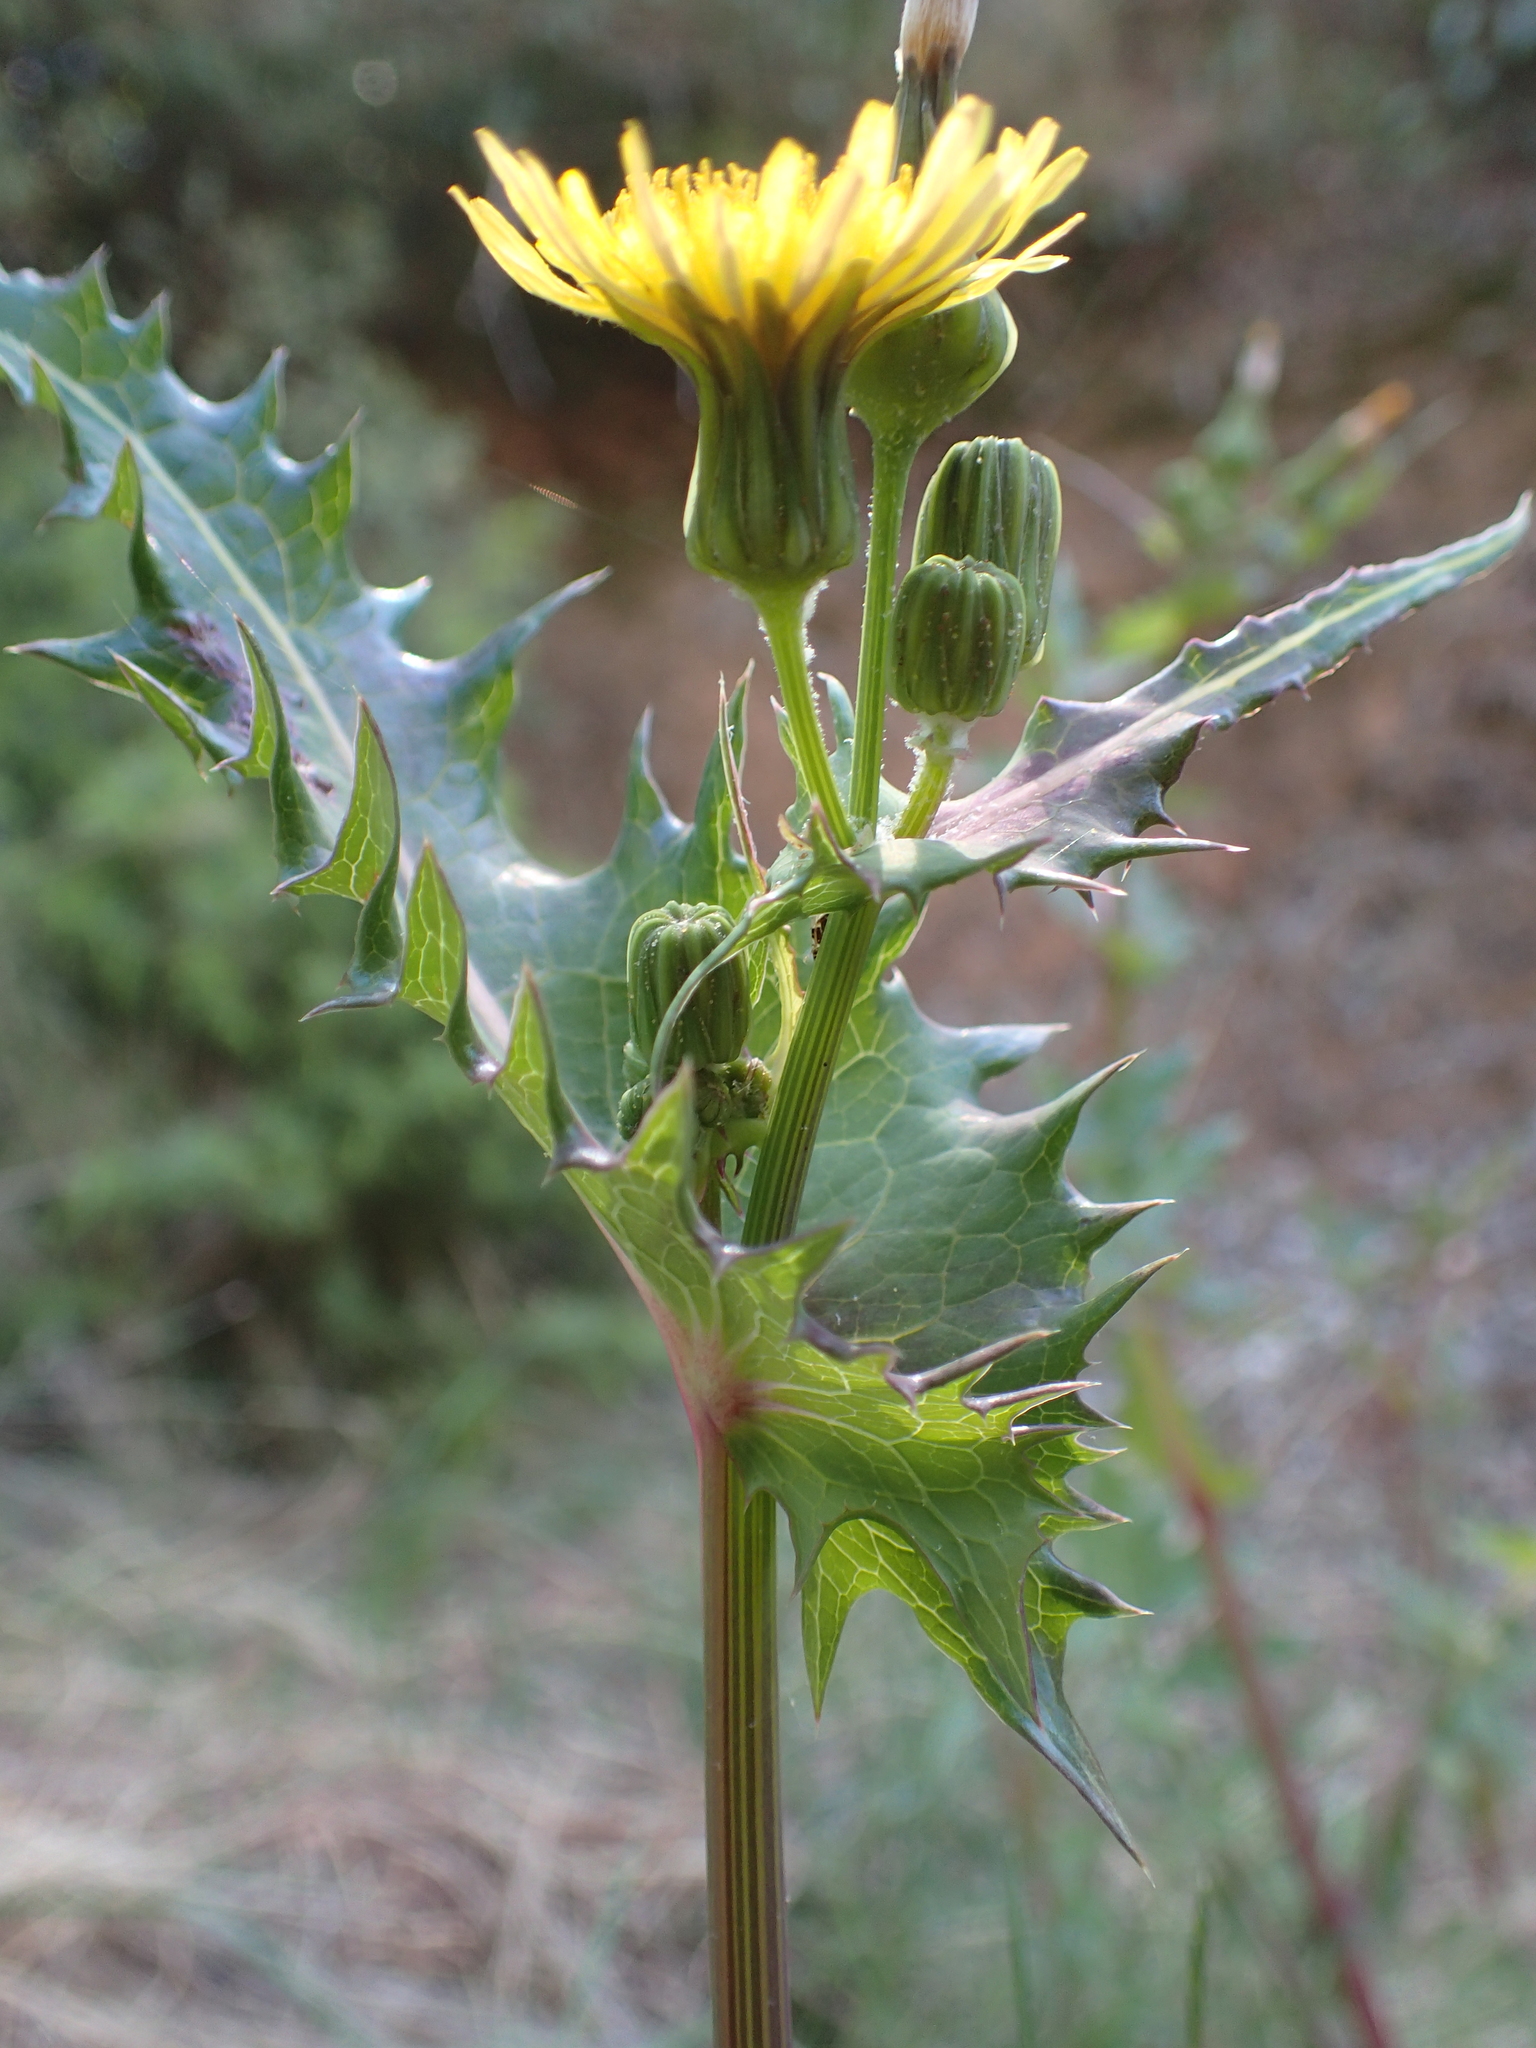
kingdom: Plantae
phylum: Tracheophyta
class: Magnoliopsida
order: Asterales
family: Asteraceae
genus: Sonchus
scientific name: Sonchus asper
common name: Prickly sow-thistle
